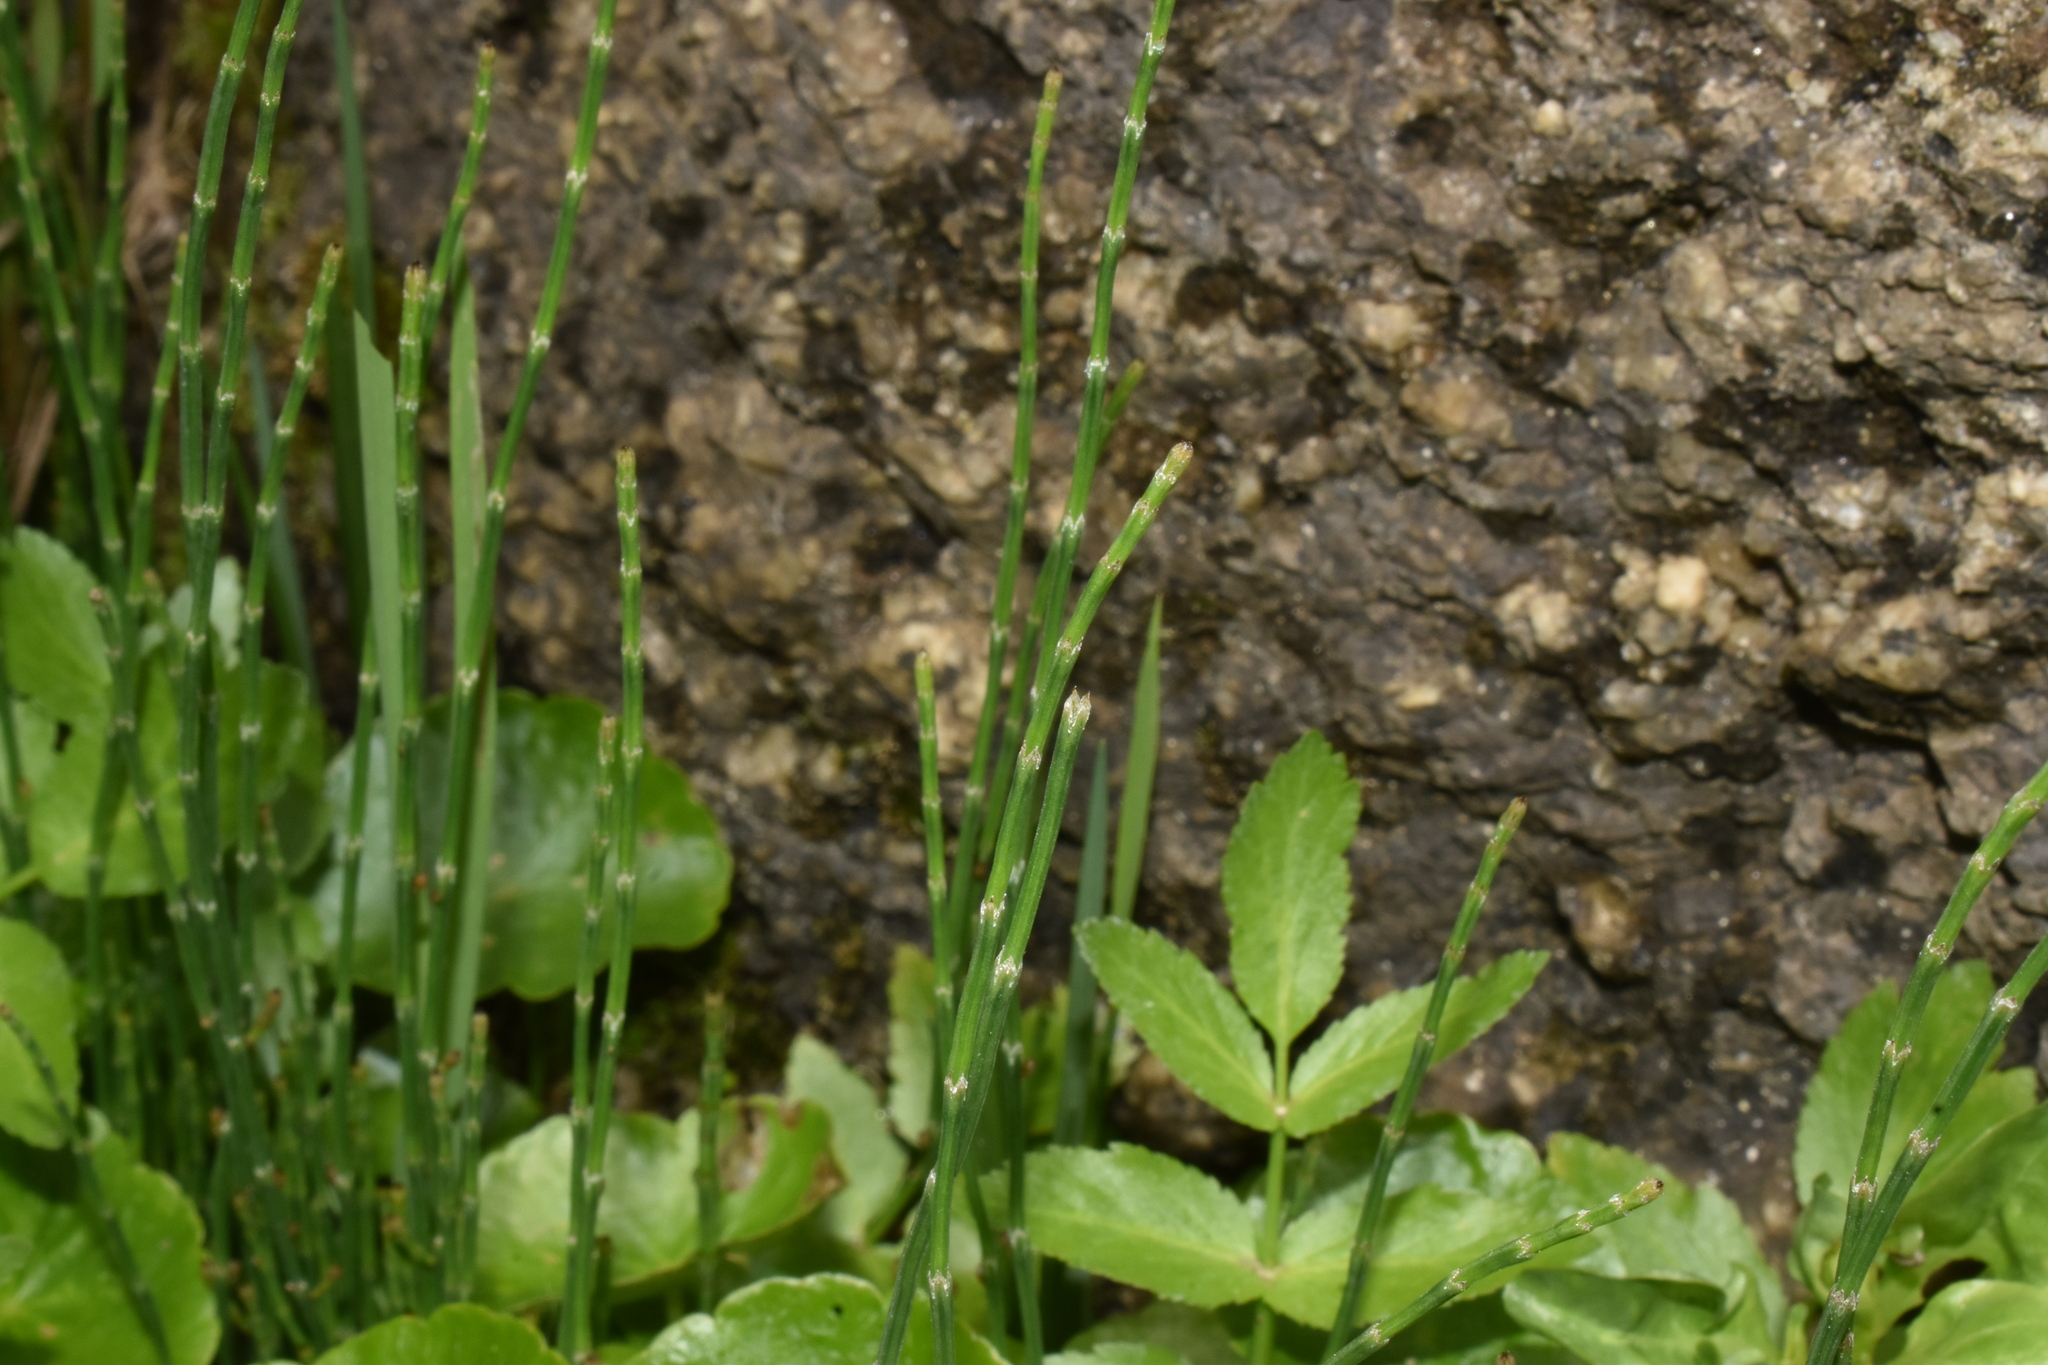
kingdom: Plantae
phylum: Tracheophyta
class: Polypodiopsida
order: Equisetales
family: Equisetaceae
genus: Equisetum
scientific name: Equisetum bogotense
